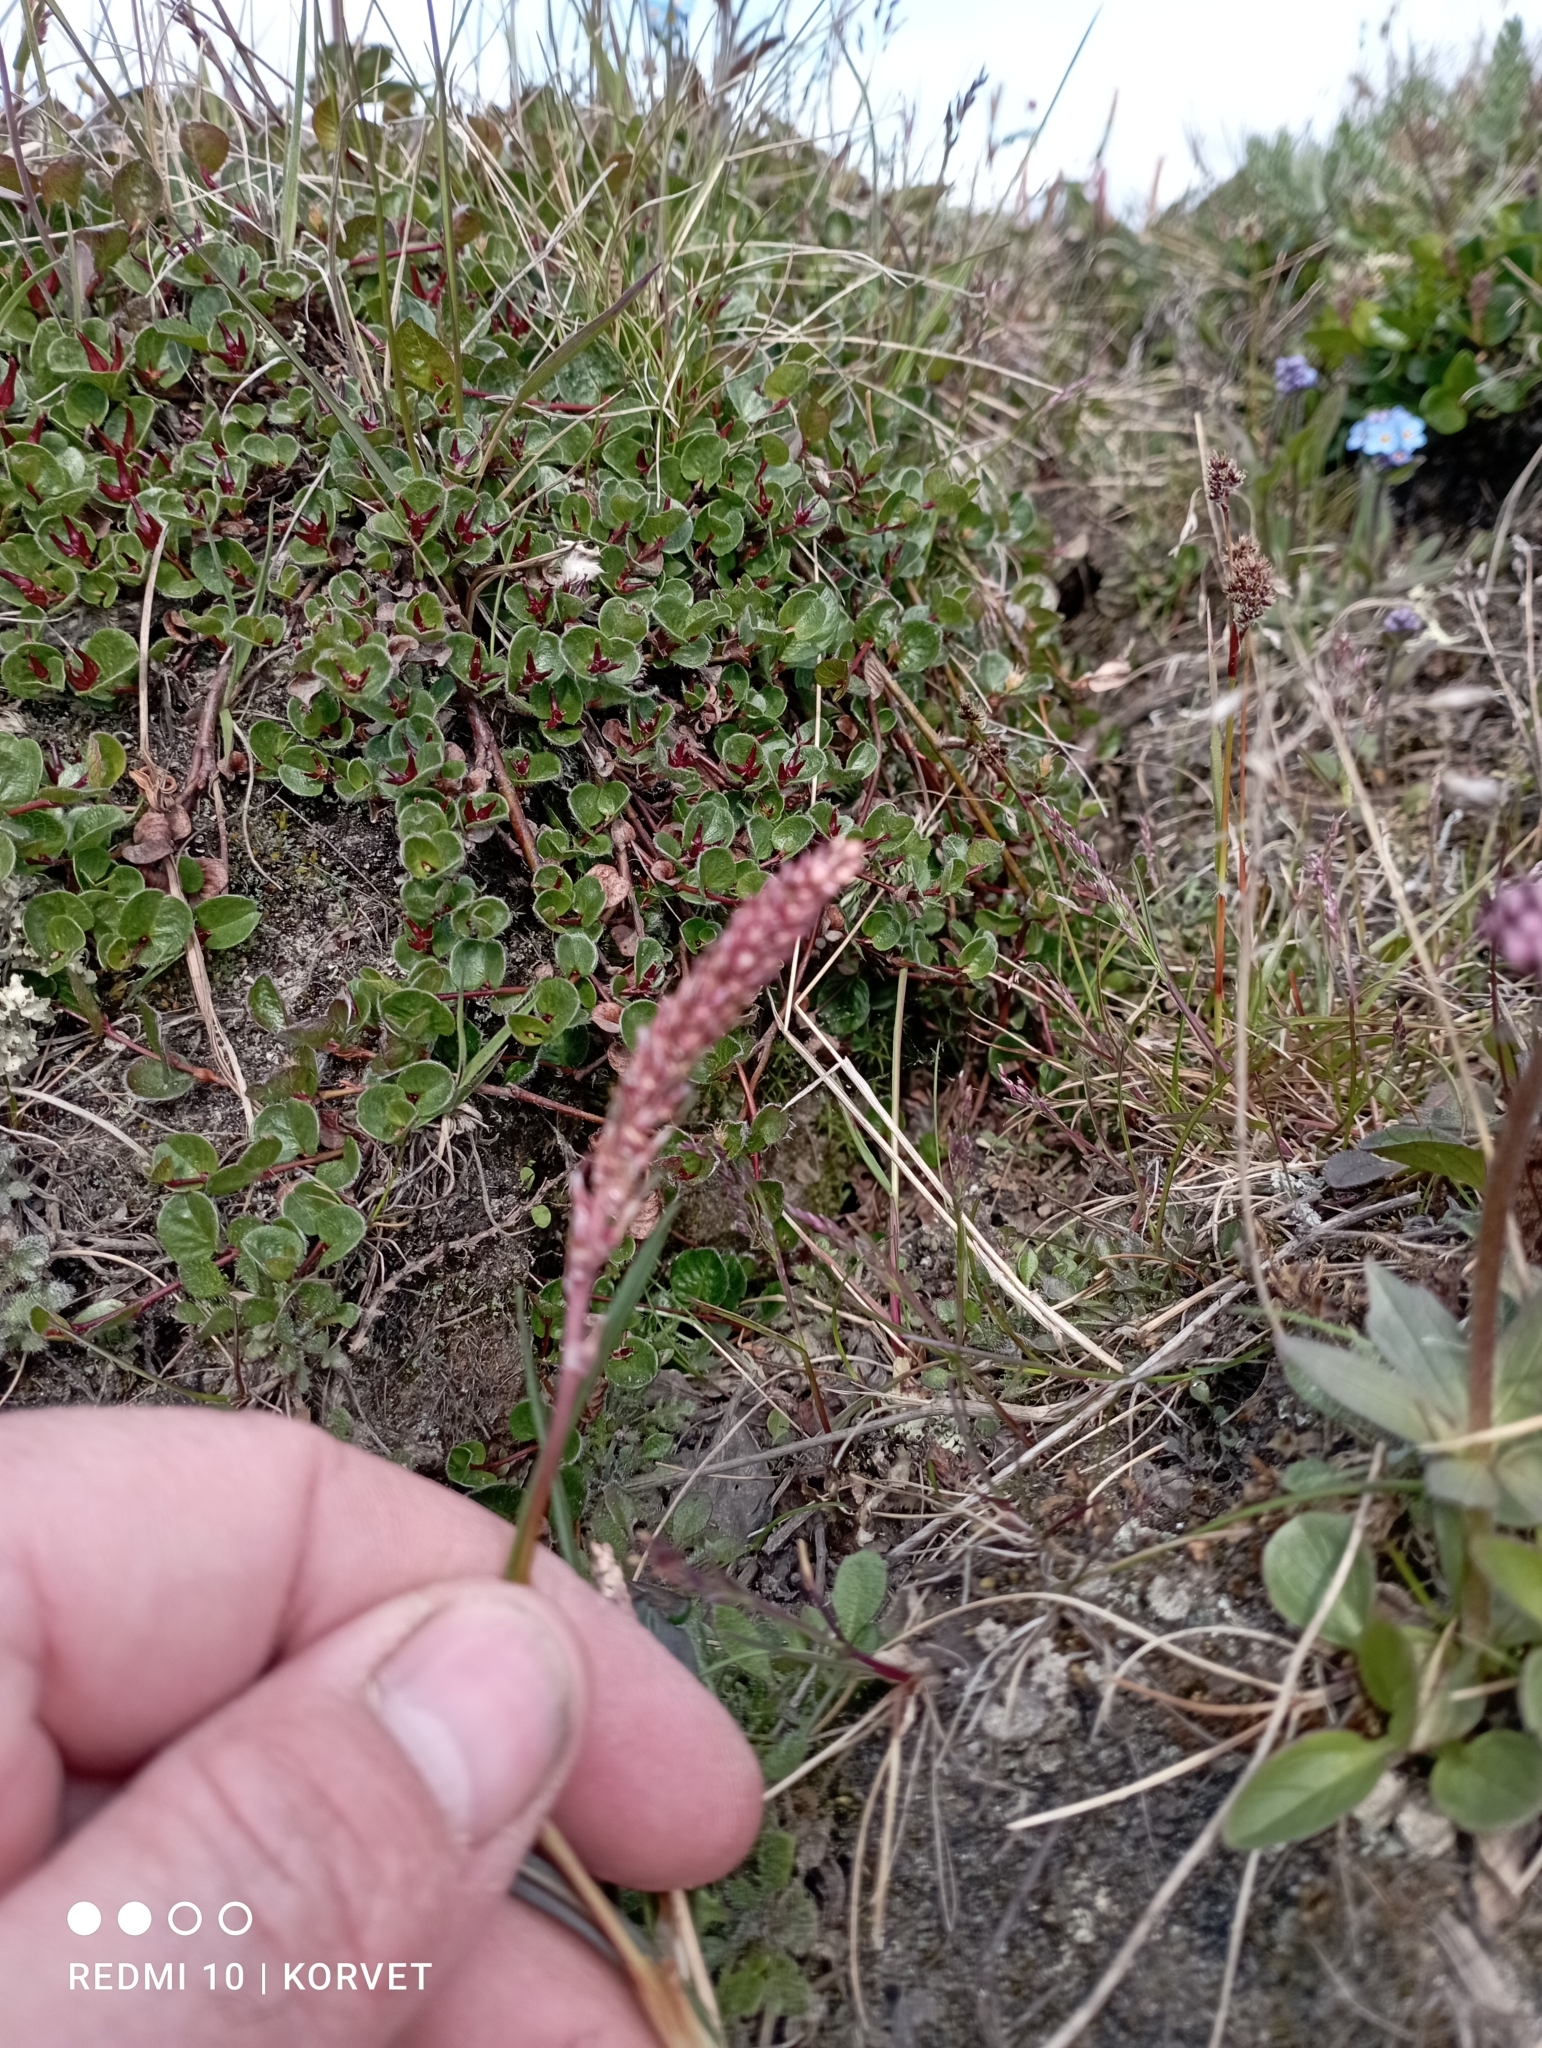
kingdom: Plantae
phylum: Tracheophyta
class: Magnoliopsida
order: Caryophyllales
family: Polygonaceae
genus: Bistorta
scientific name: Bistorta vivipara
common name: Alpine bistort
